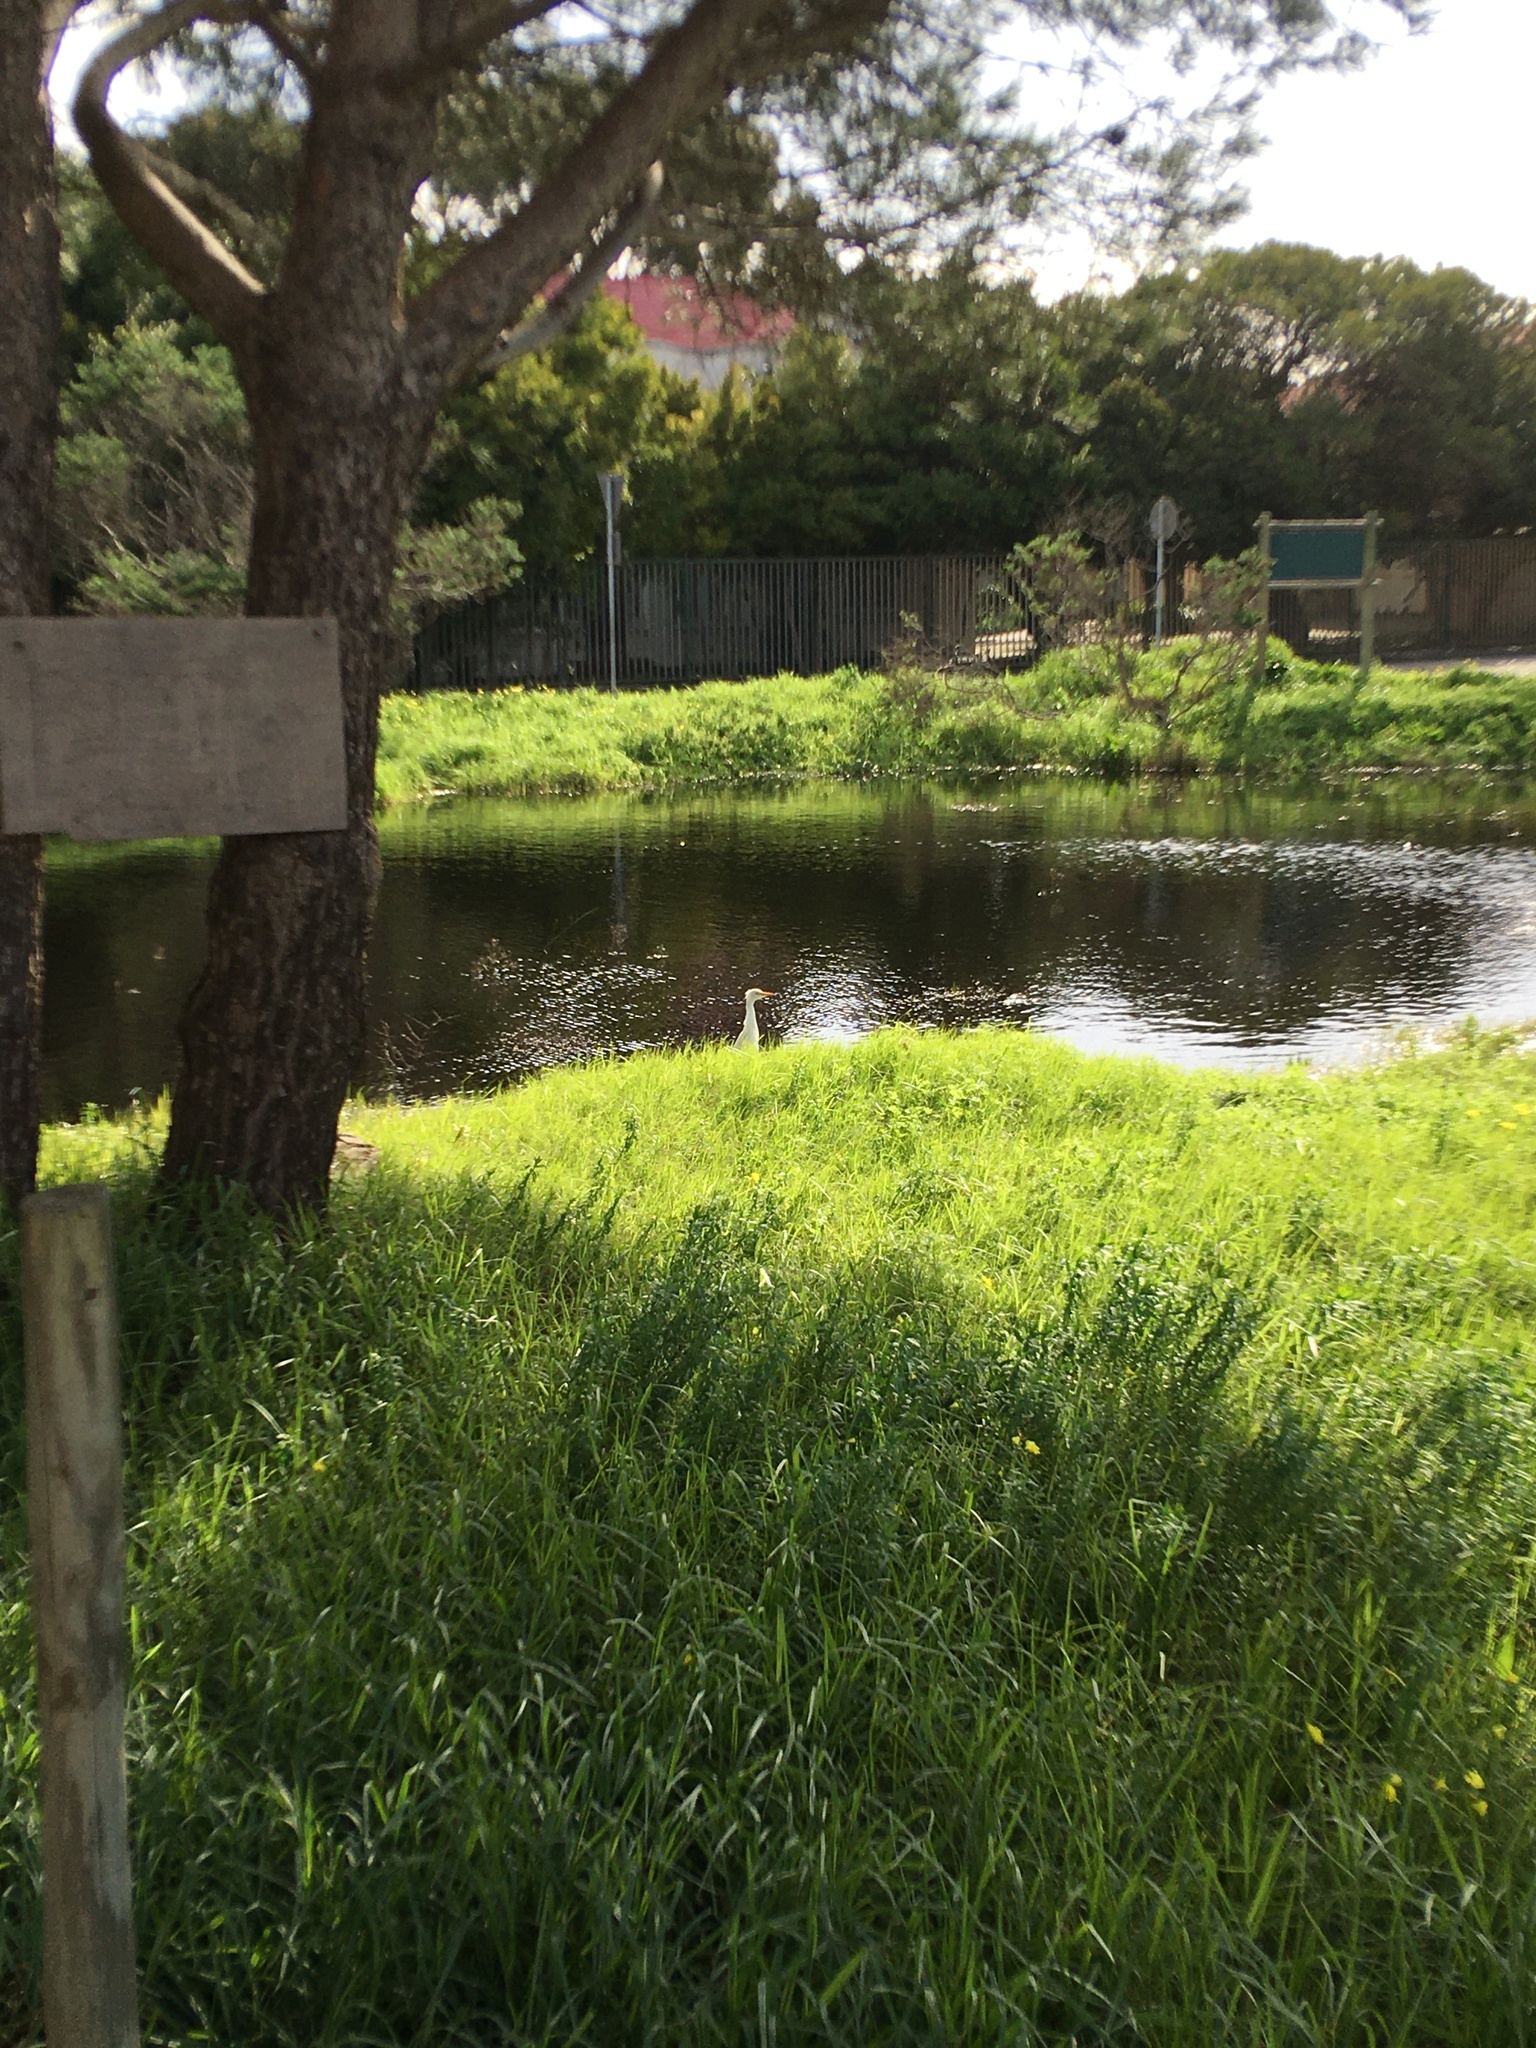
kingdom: Animalia
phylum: Chordata
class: Aves
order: Pelecaniformes
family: Ardeidae
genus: Bubulcus
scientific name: Bubulcus ibis
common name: Cattle egret
